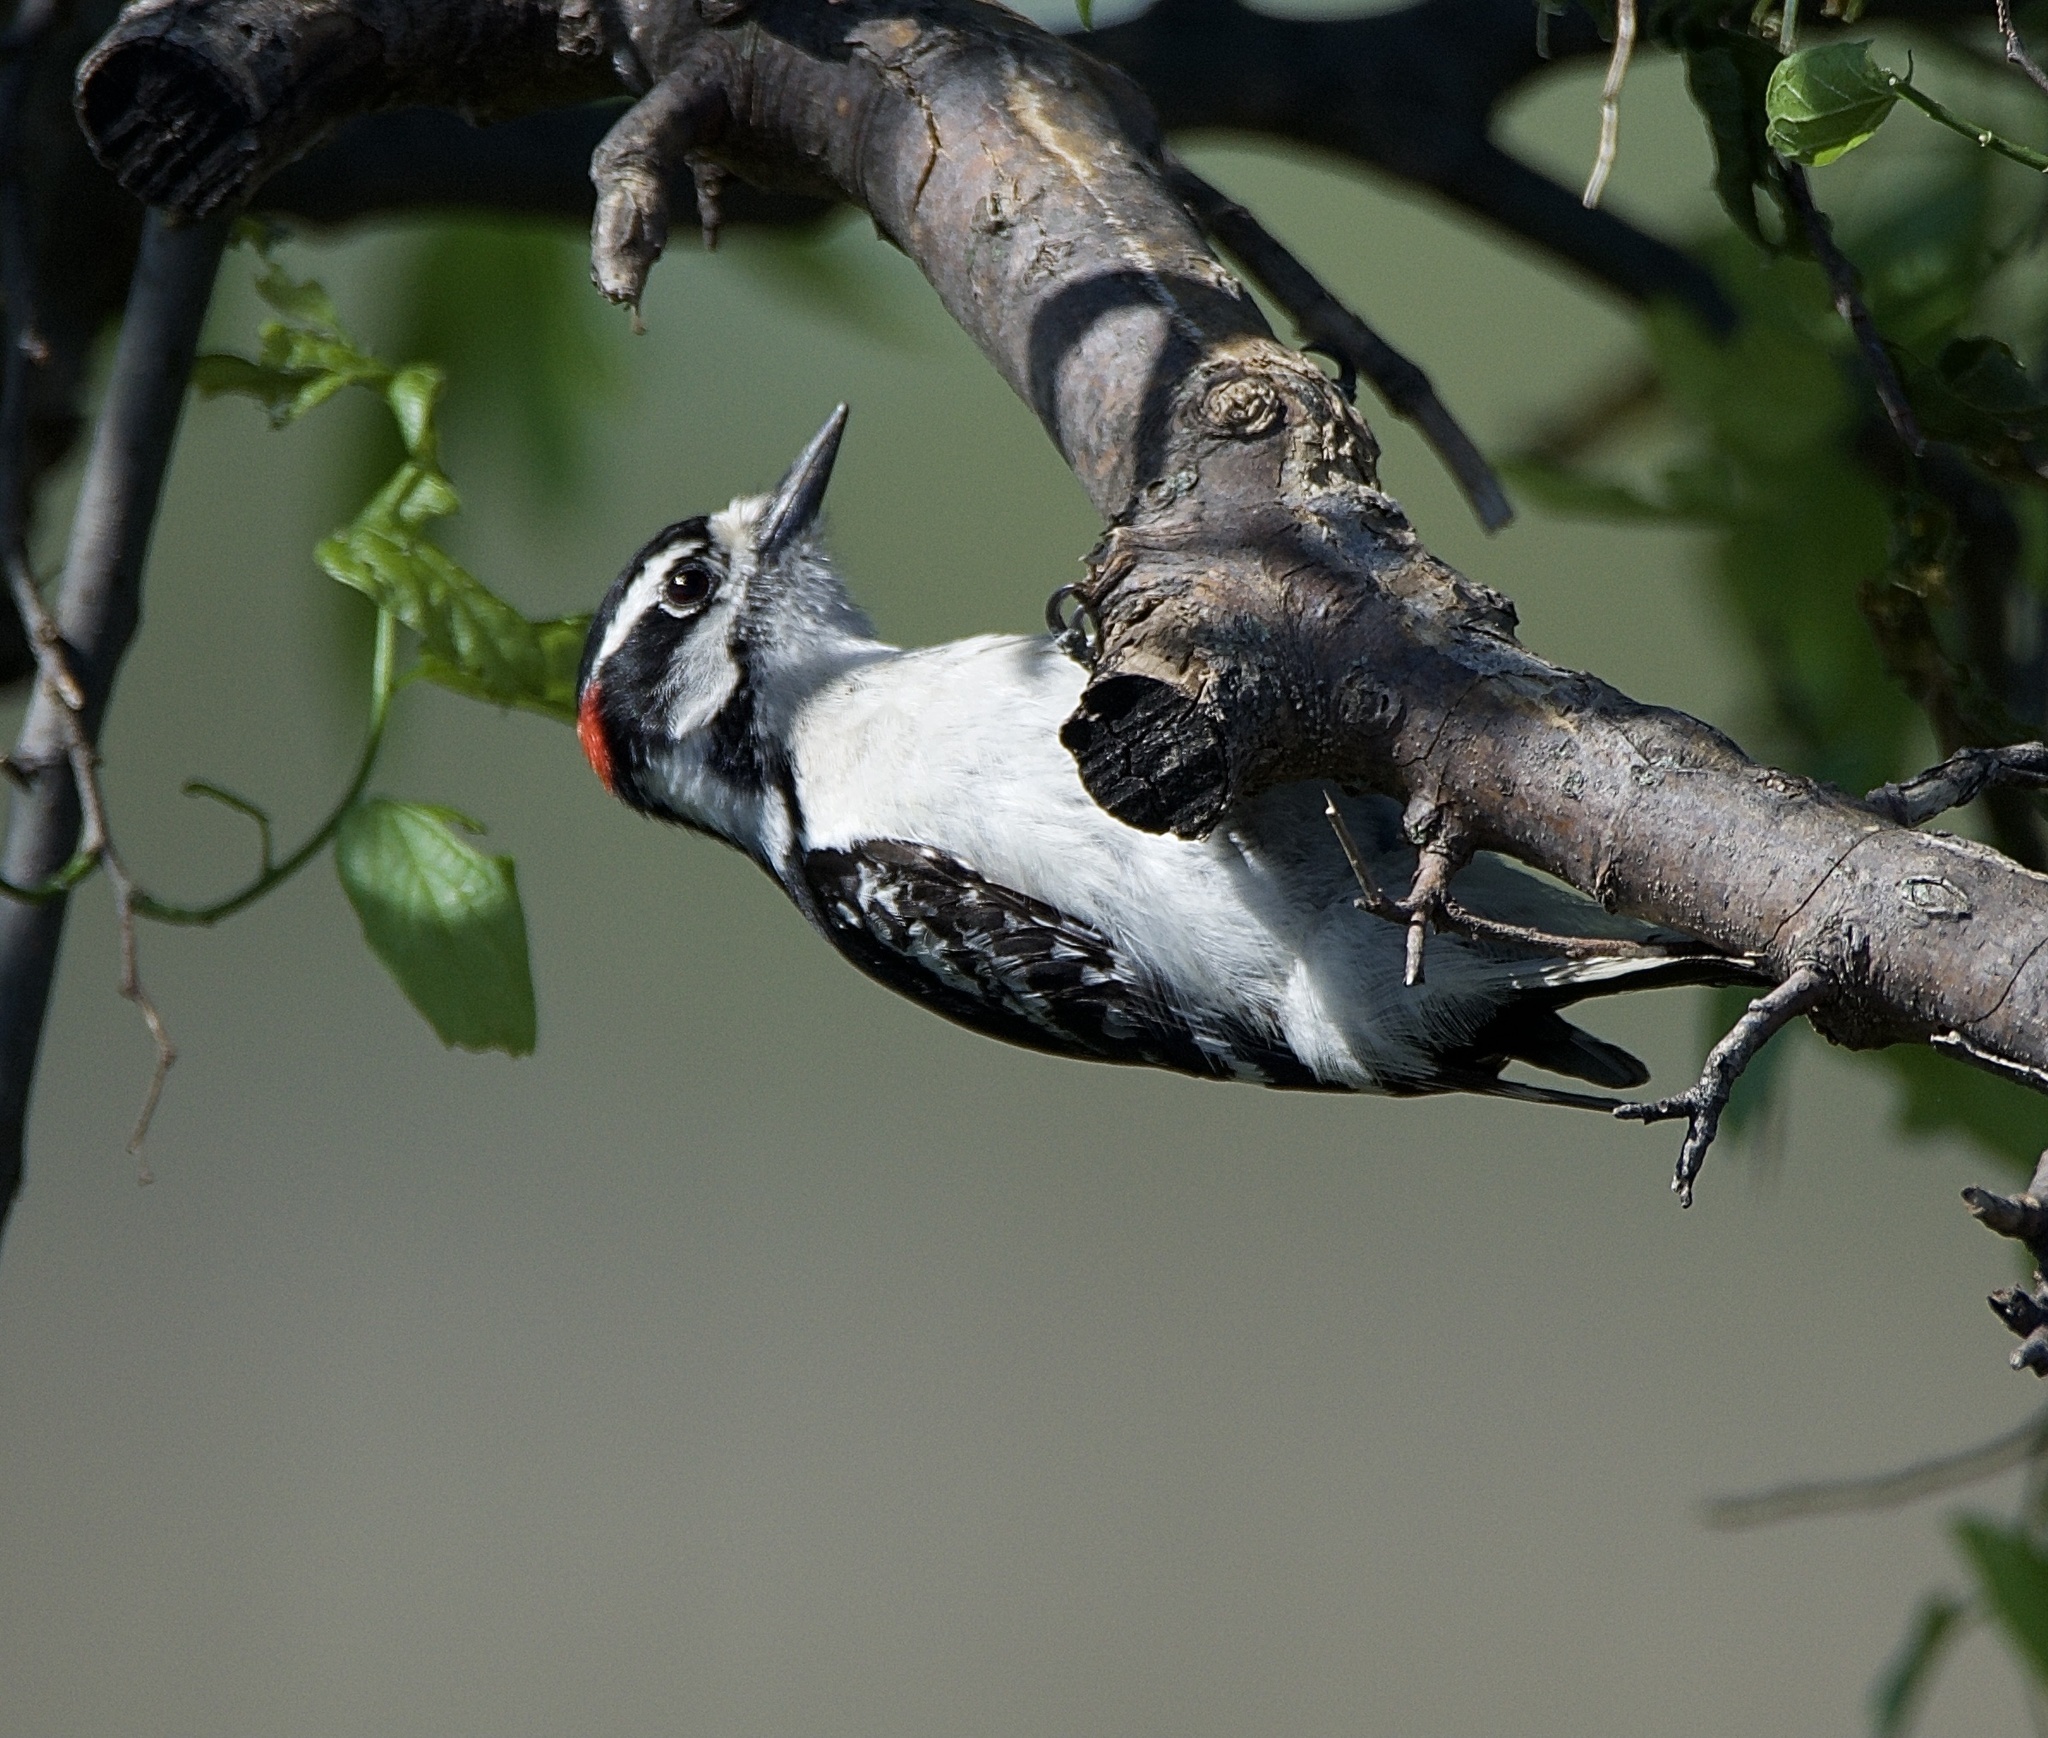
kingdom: Animalia
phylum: Chordata
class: Aves
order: Piciformes
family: Picidae
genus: Dryobates
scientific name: Dryobates pubescens
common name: Downy woodpecker
